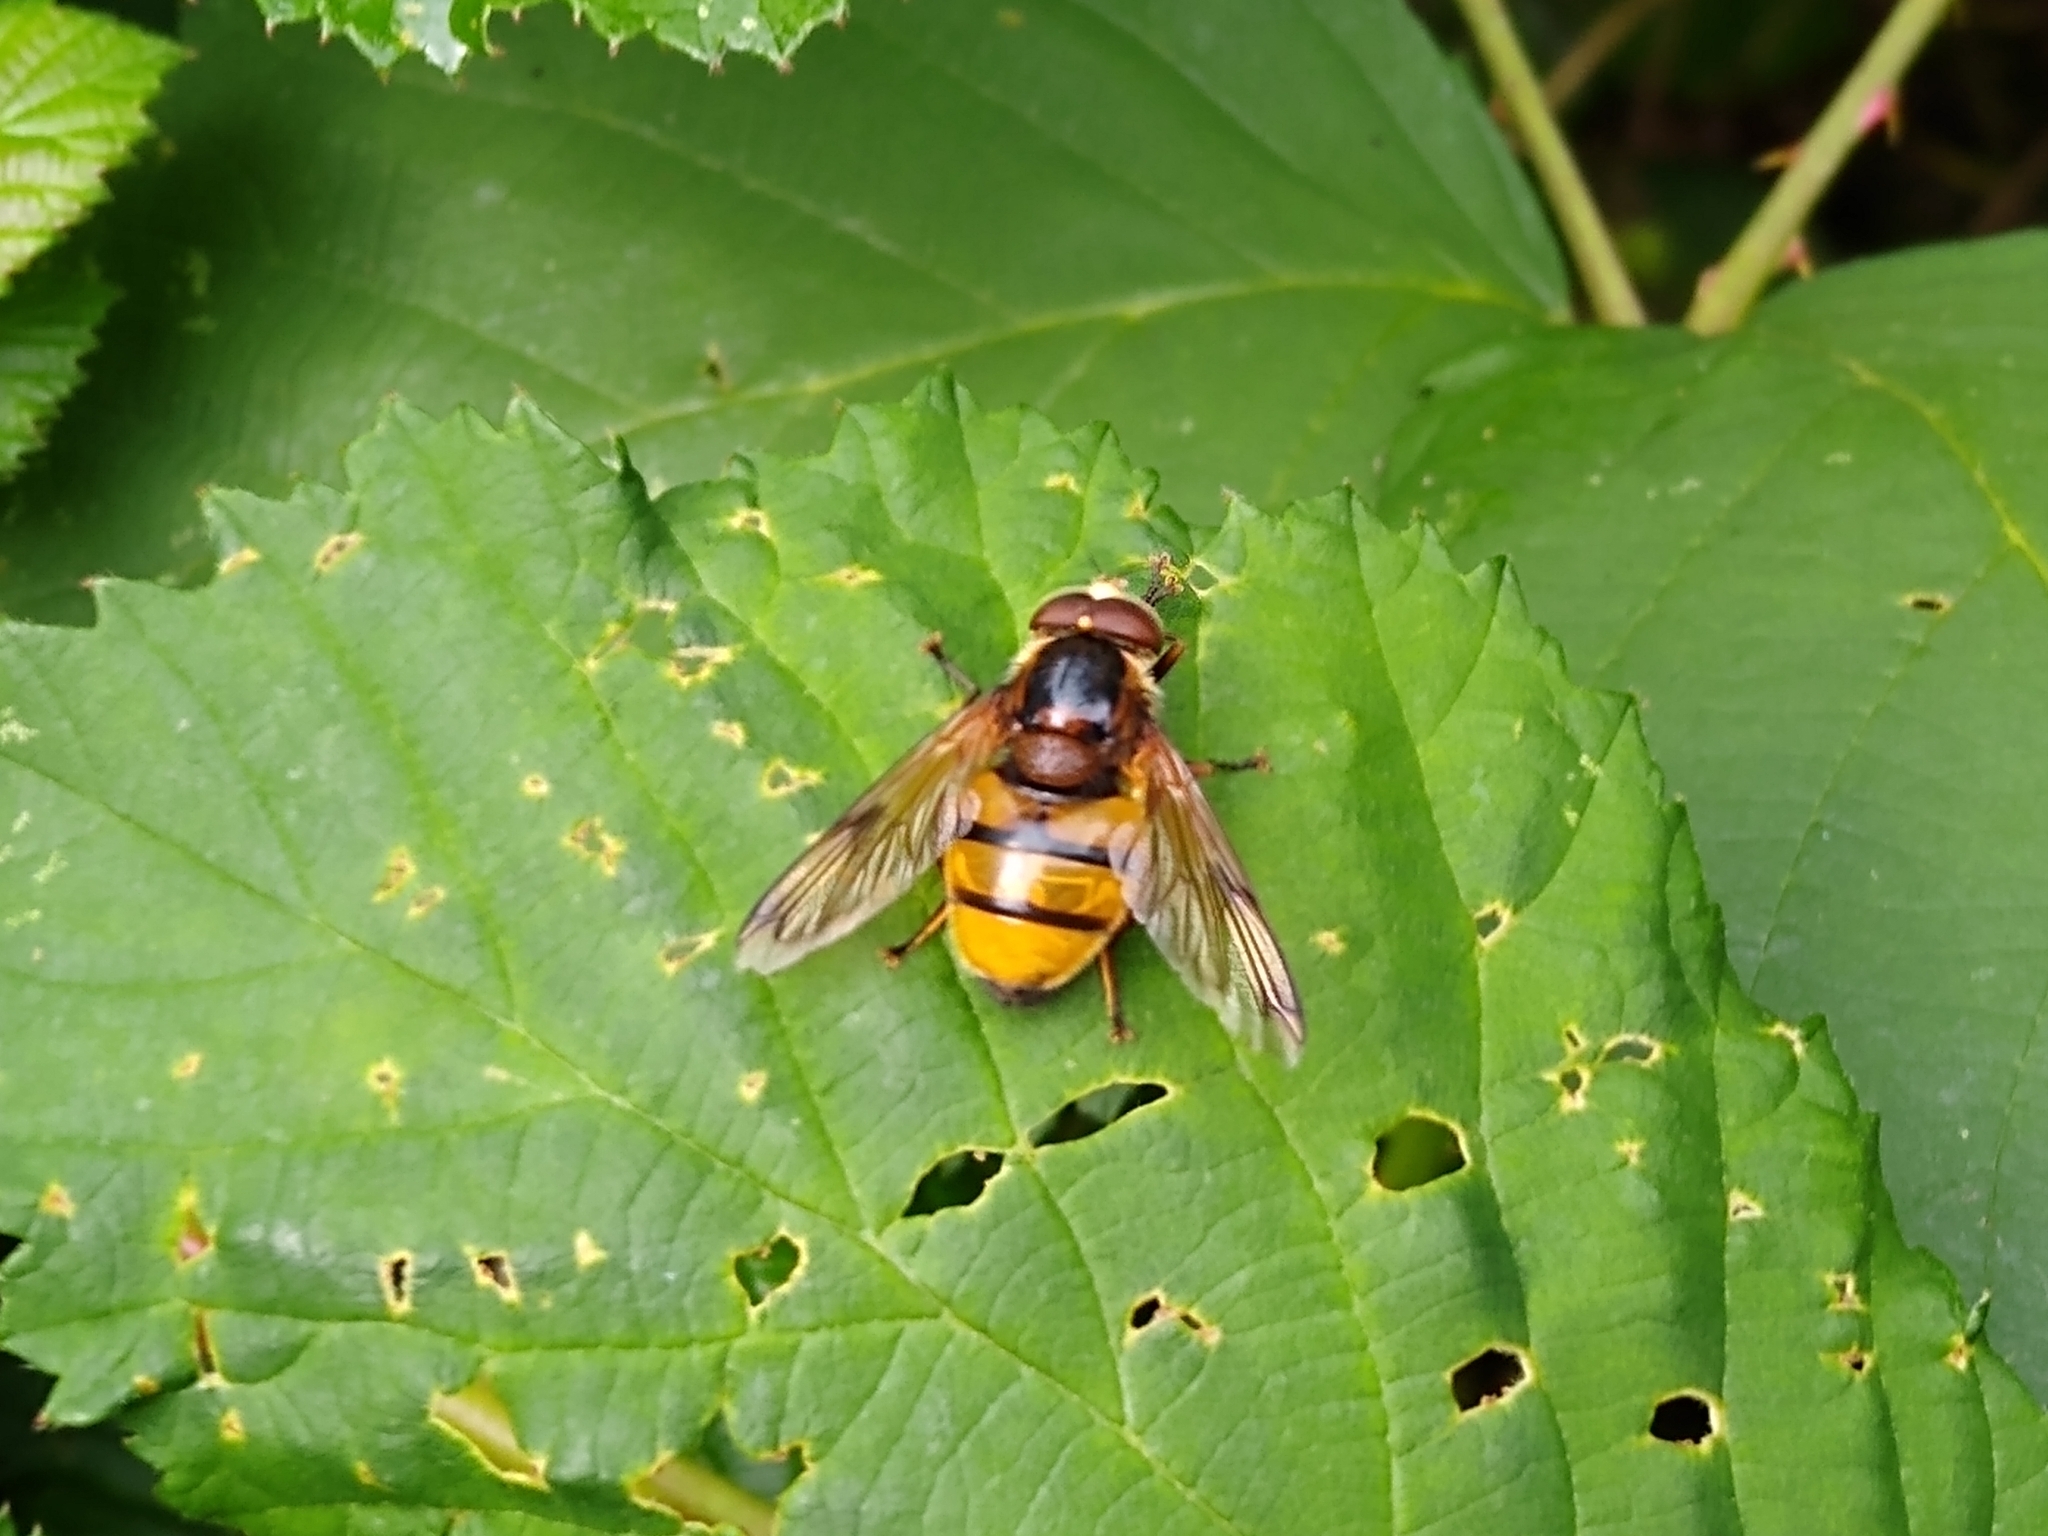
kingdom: Animalia
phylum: Arthropoda
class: Insecta
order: Diptera
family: Syrphidae
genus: Volucella
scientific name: Volucella inanis
